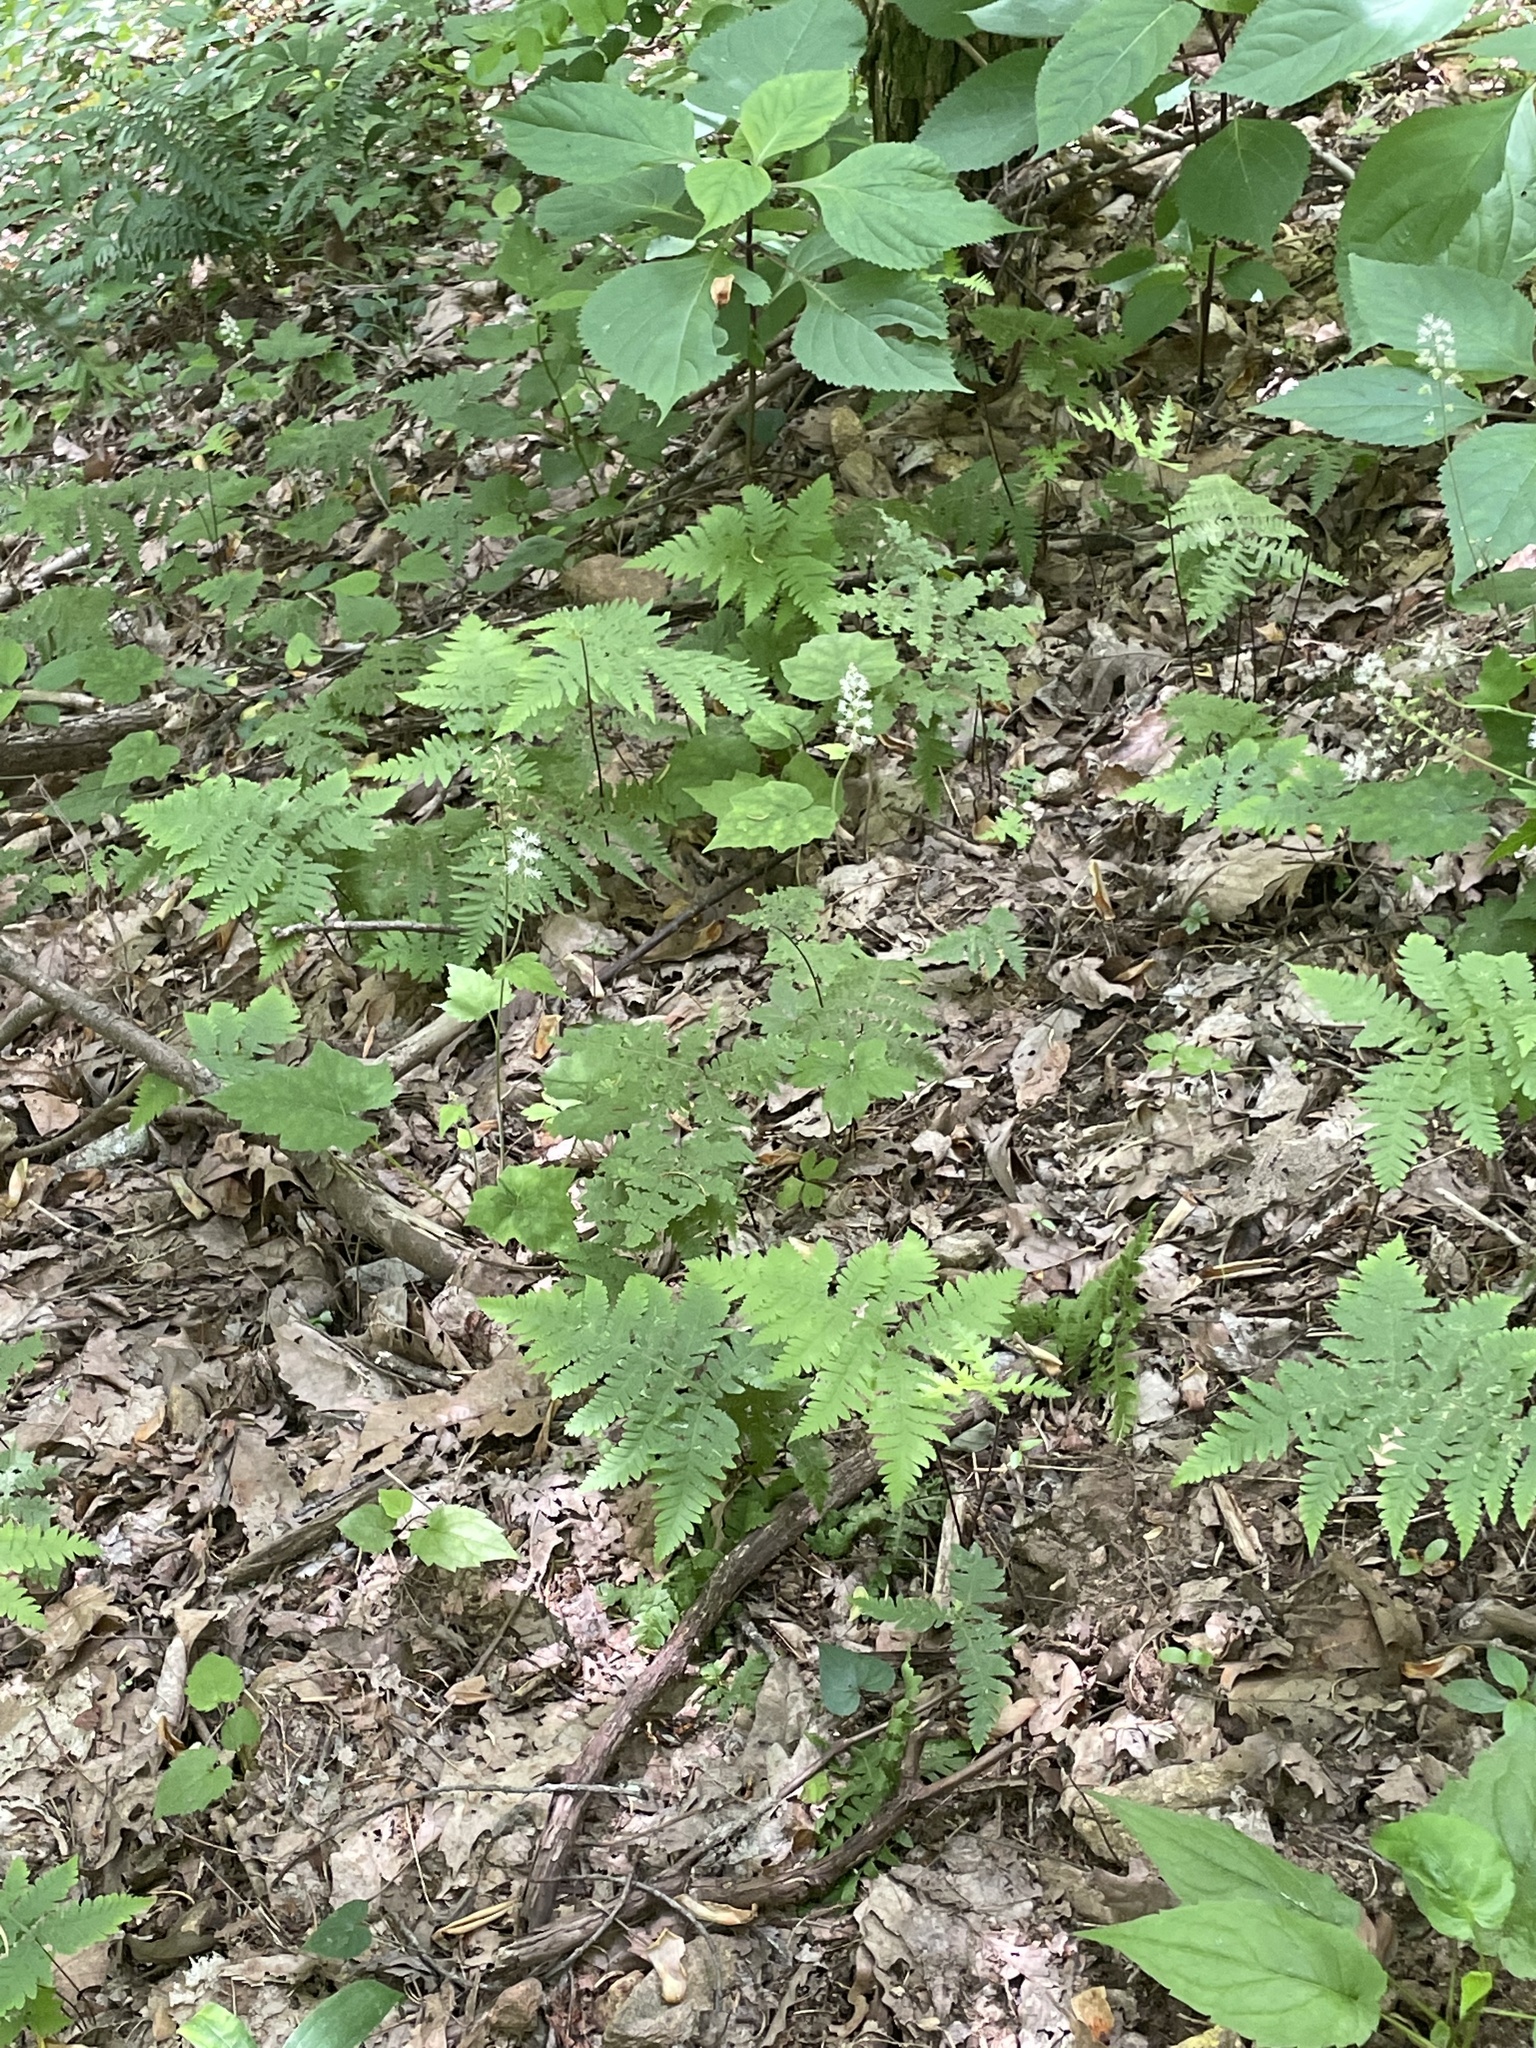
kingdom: Plantae
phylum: Tracheophyta
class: Polypodiopsida
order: Polypodiales
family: Thelypteridaceae
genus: Phegopteris
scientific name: Phegopteris hexagonoptera
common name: Broad beech fern
